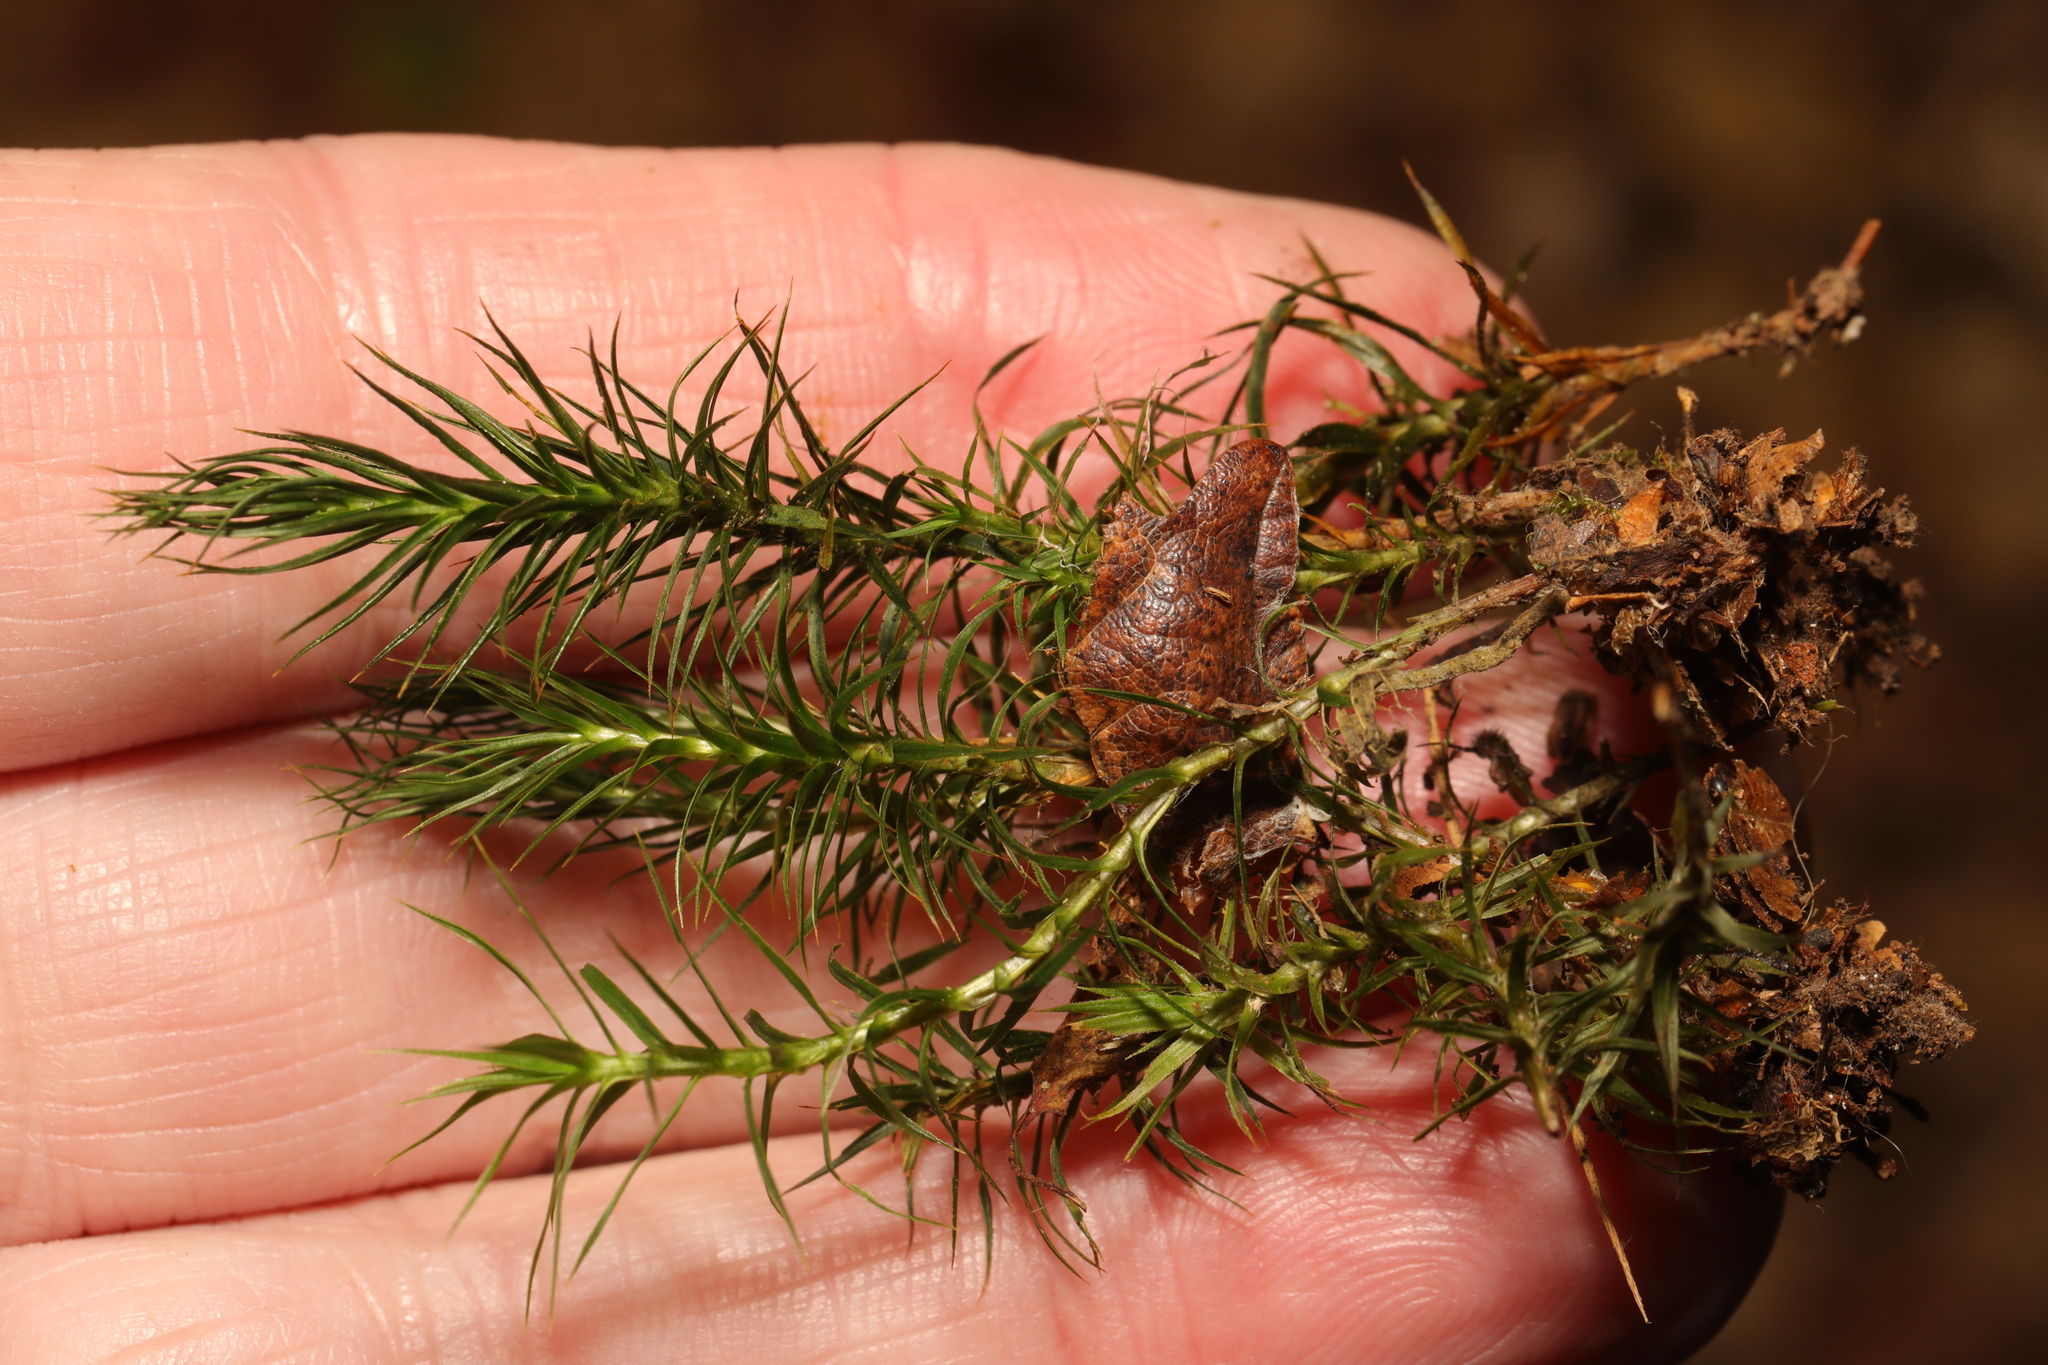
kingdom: Plantae
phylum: Bryophyta
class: Polytrichopsida
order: Polytrichales
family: Polytrichaceae
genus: Polytrichum
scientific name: Polytrichum formosum
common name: Bank haircap moss
